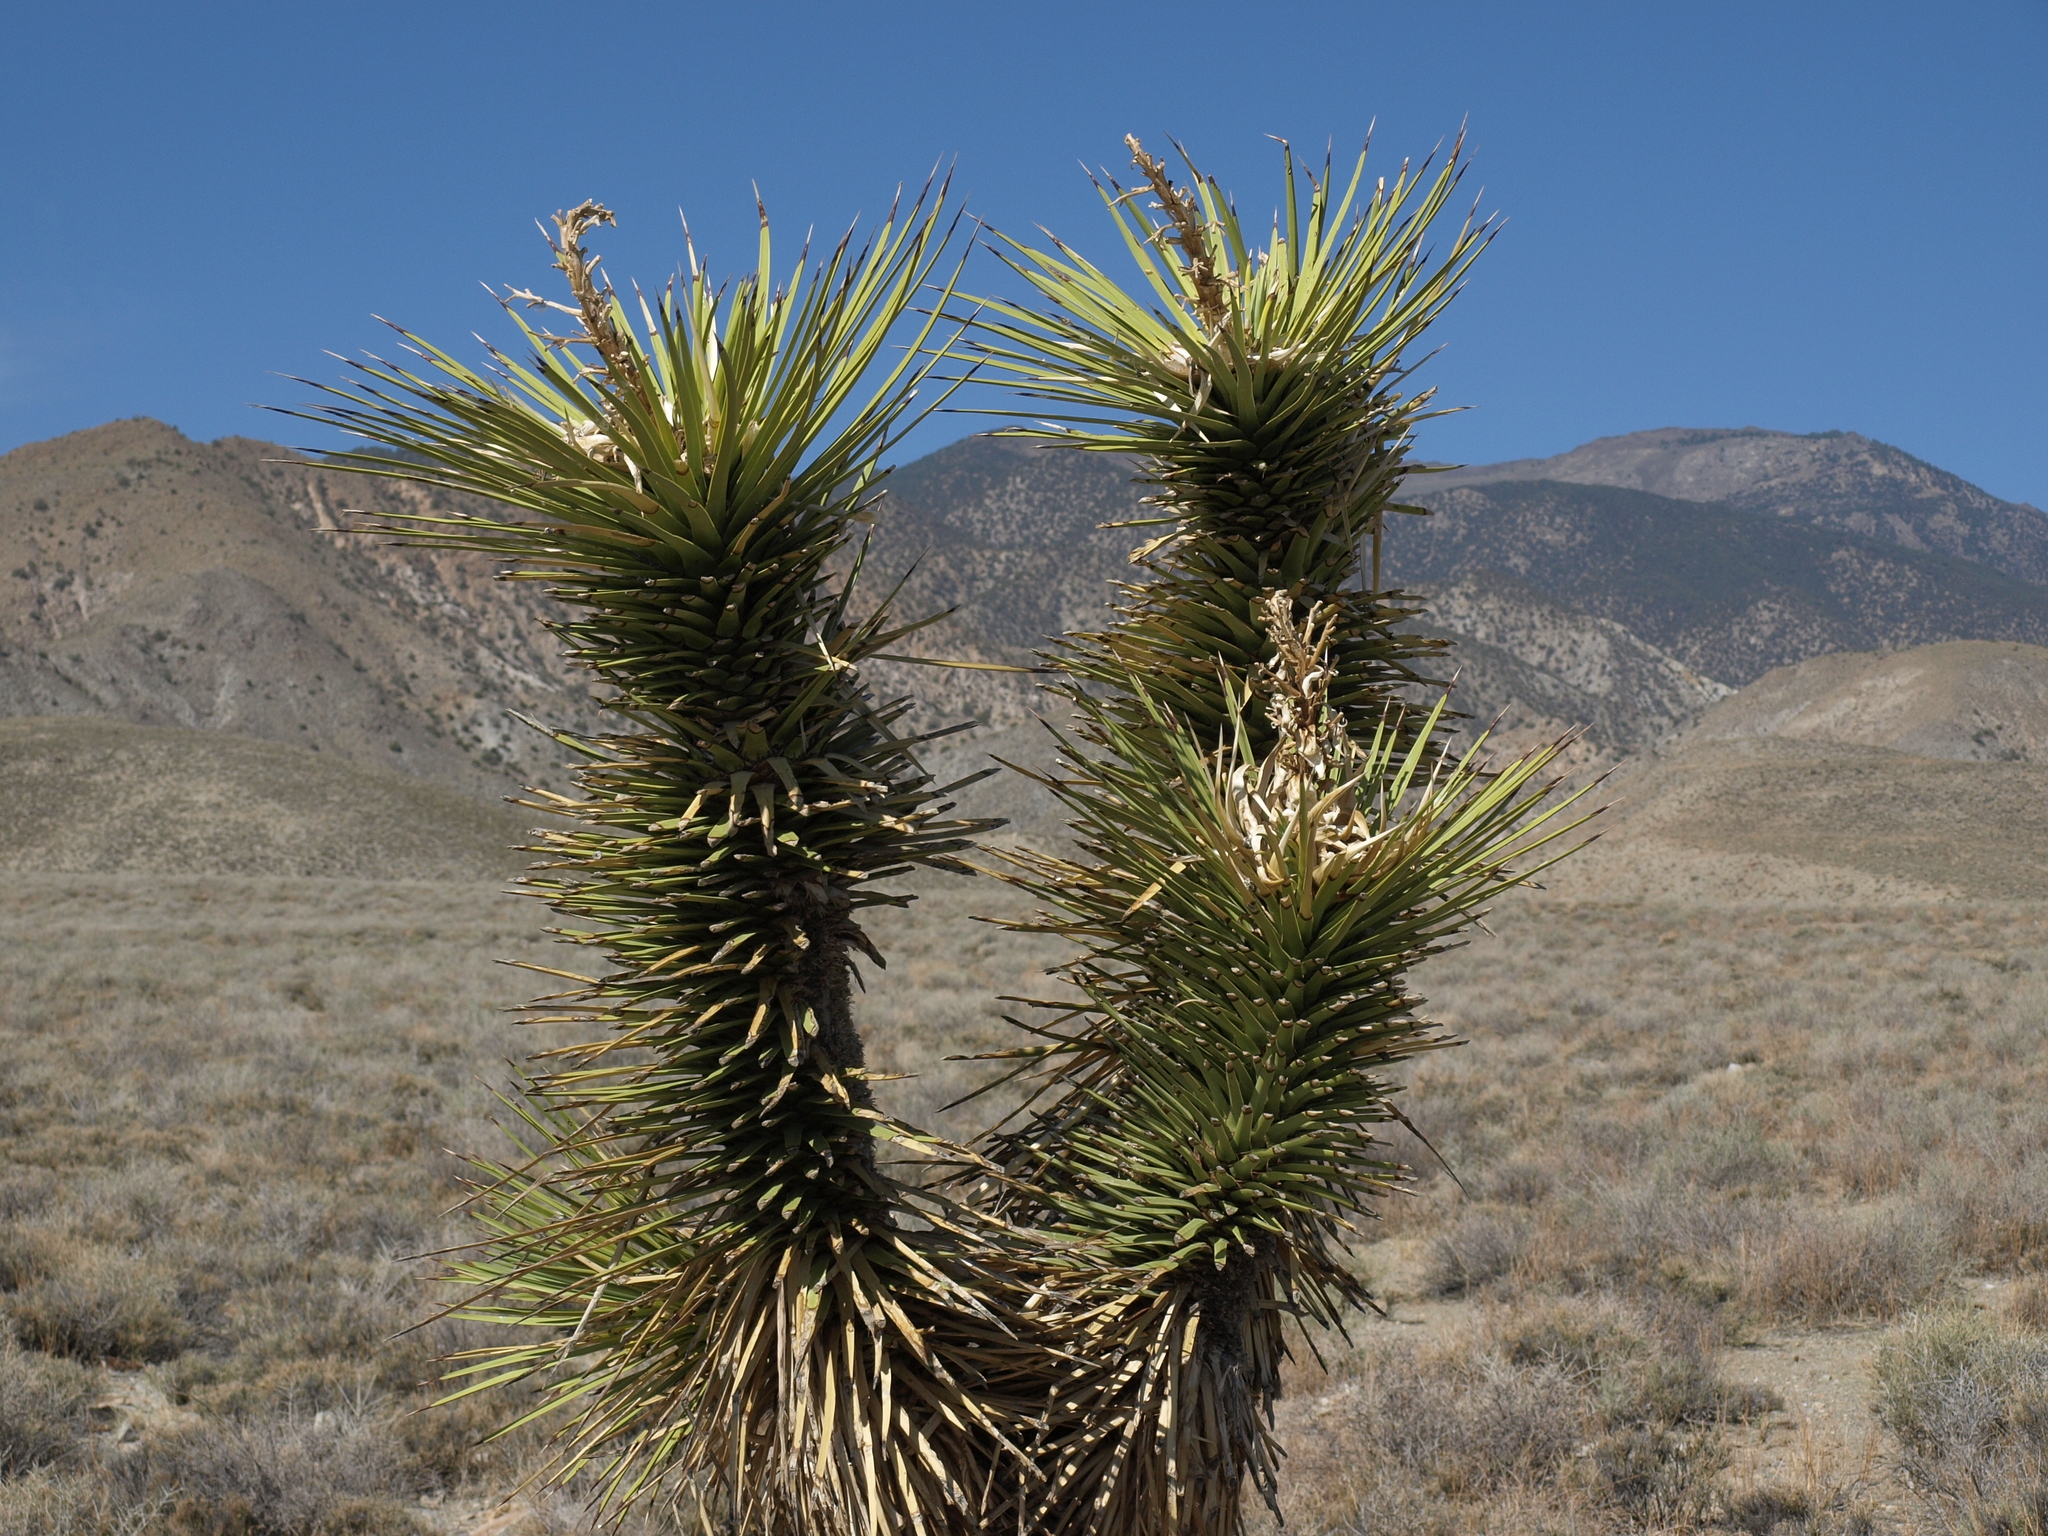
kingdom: Plantae
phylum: Tracheophyta
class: Liliopsida
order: Asparagales
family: Asparagaceae
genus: Yucca
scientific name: Yucca brevifolia
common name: Joshua tree
